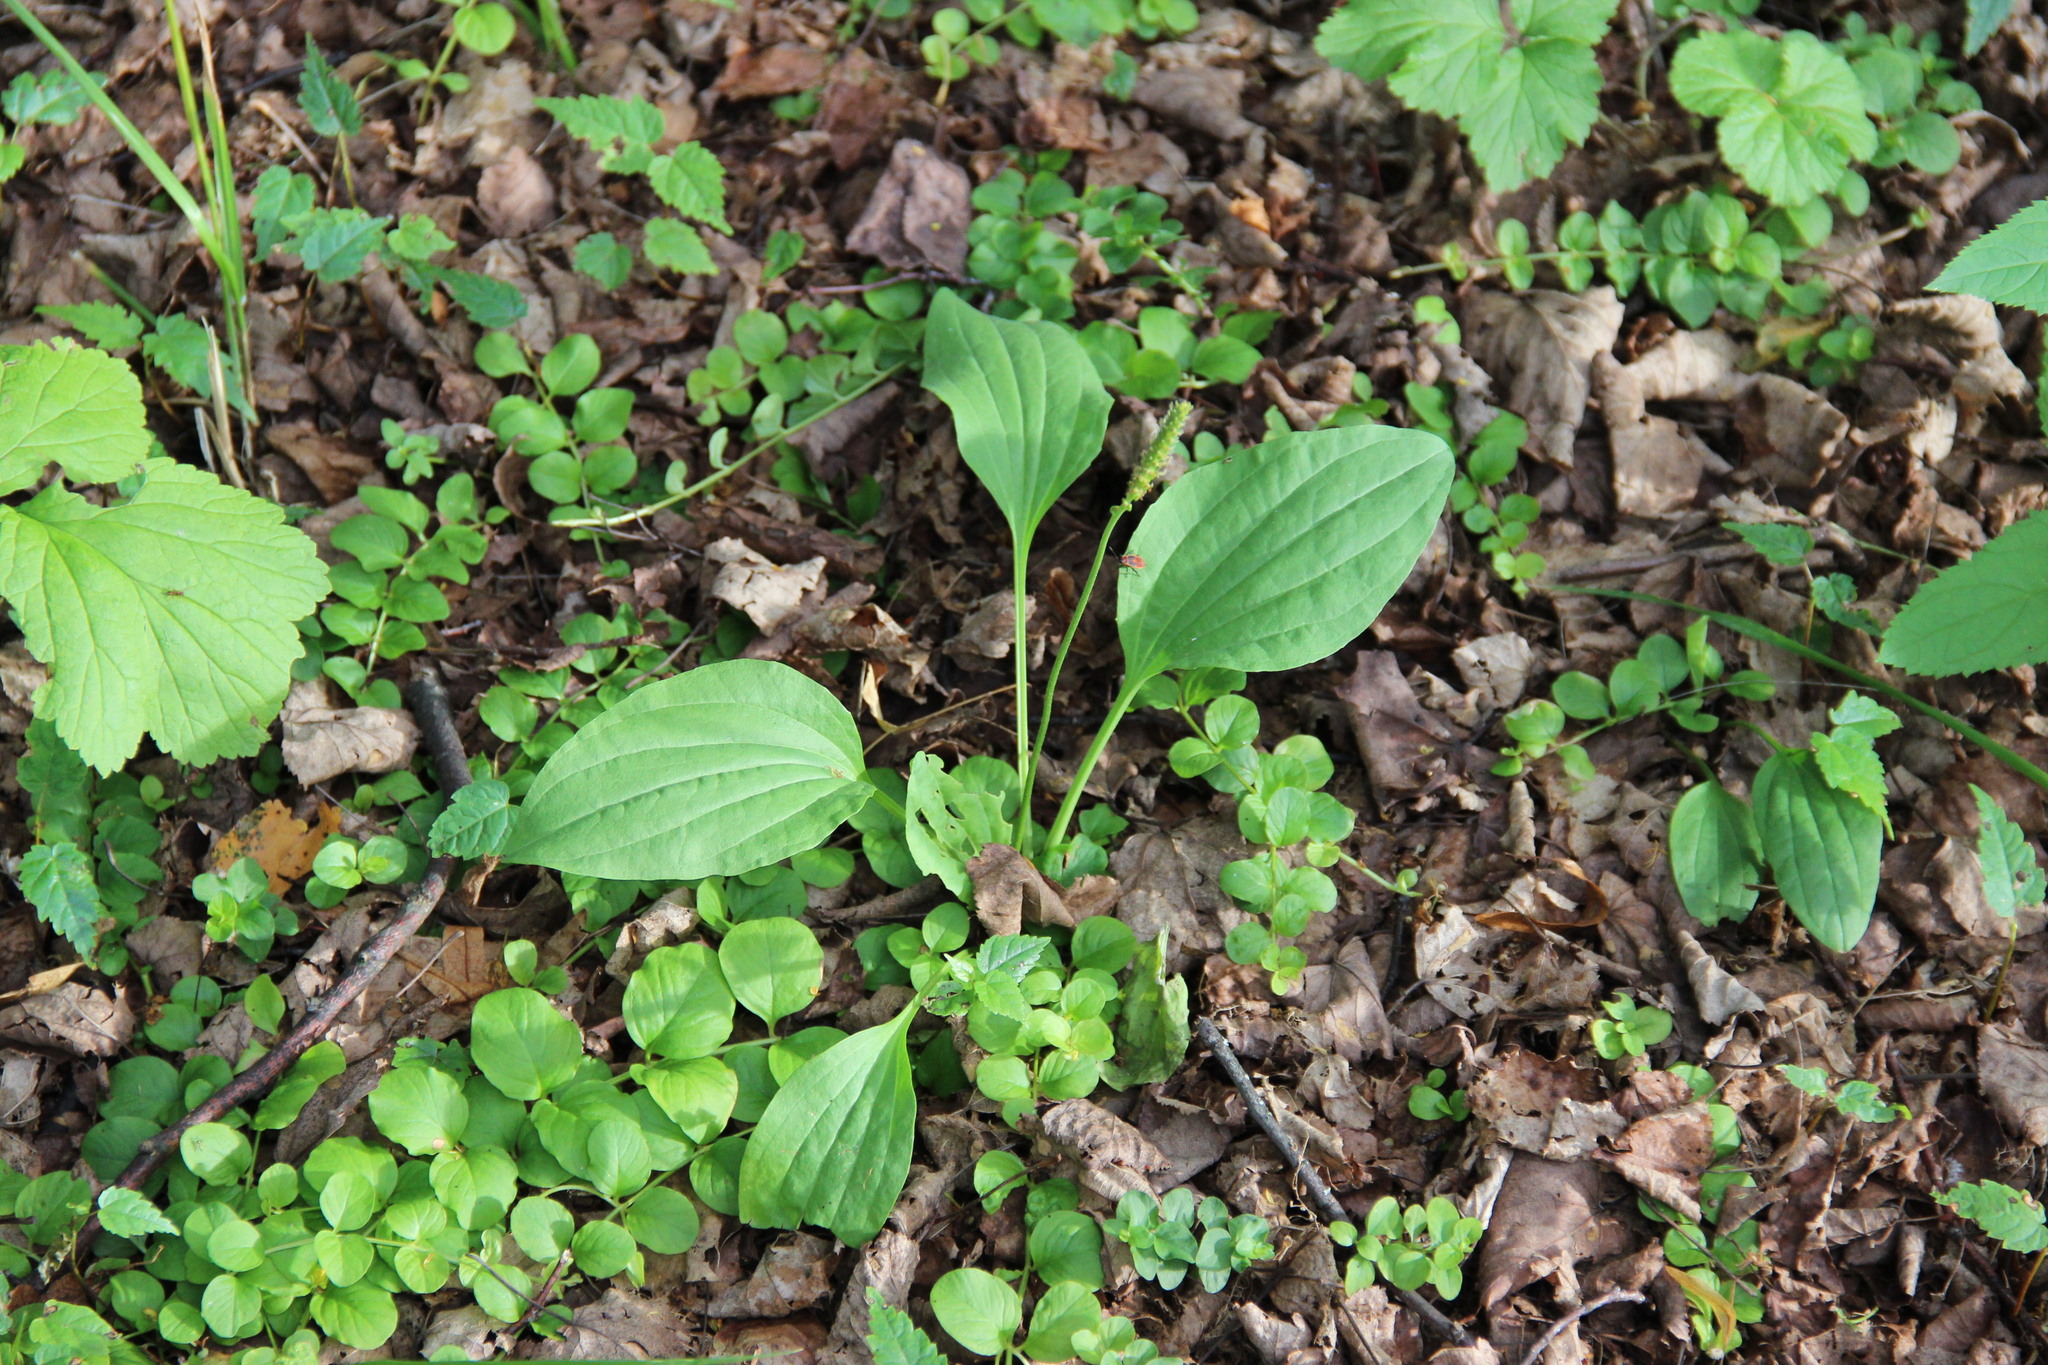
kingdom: Plantae
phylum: Tracheophyta
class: Magnoliopsida
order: Lamiales
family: Plantaginaceae
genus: Plantago
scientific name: Plantago major
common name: Common plantain
